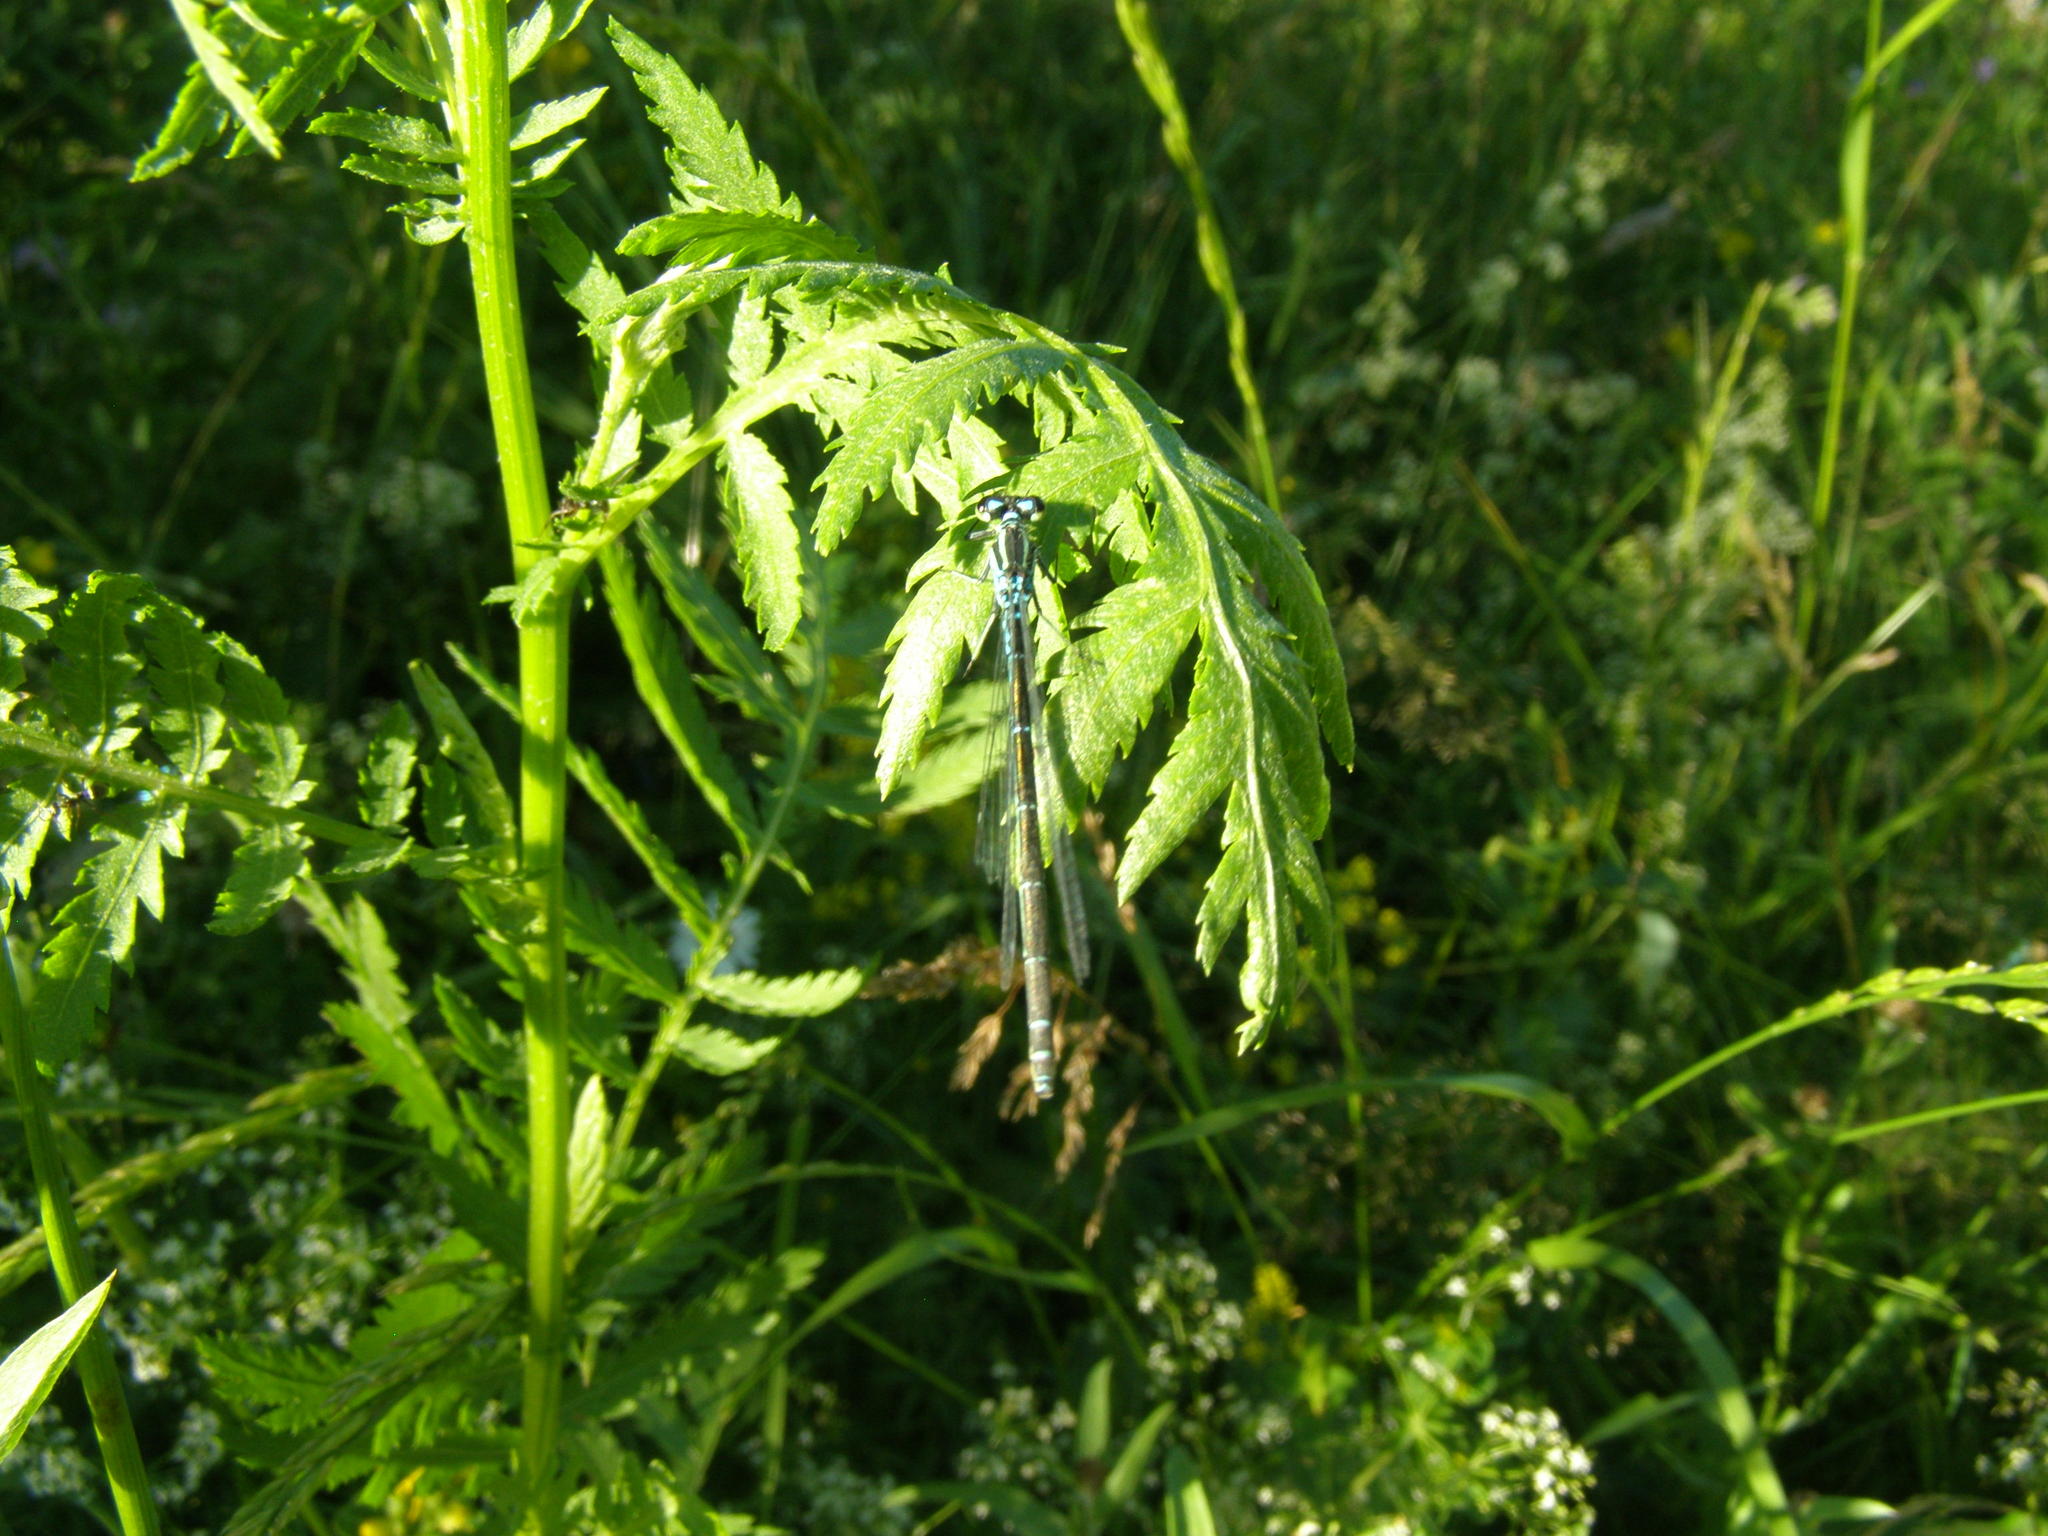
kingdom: Animalia
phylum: Arthropoda
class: Insecta
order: Odonata
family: Coenagrionidae
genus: Coenagrion
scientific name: Coenagrion puella
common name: Azure damselfly
